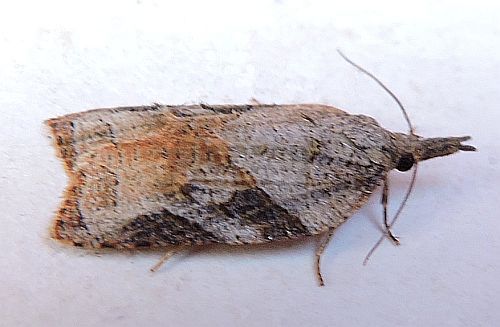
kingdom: Animalia
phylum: Arthropoda
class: Insecta
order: Lepidoptera
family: Tortricidae
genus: Platynota
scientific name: Platynota wenzelana
